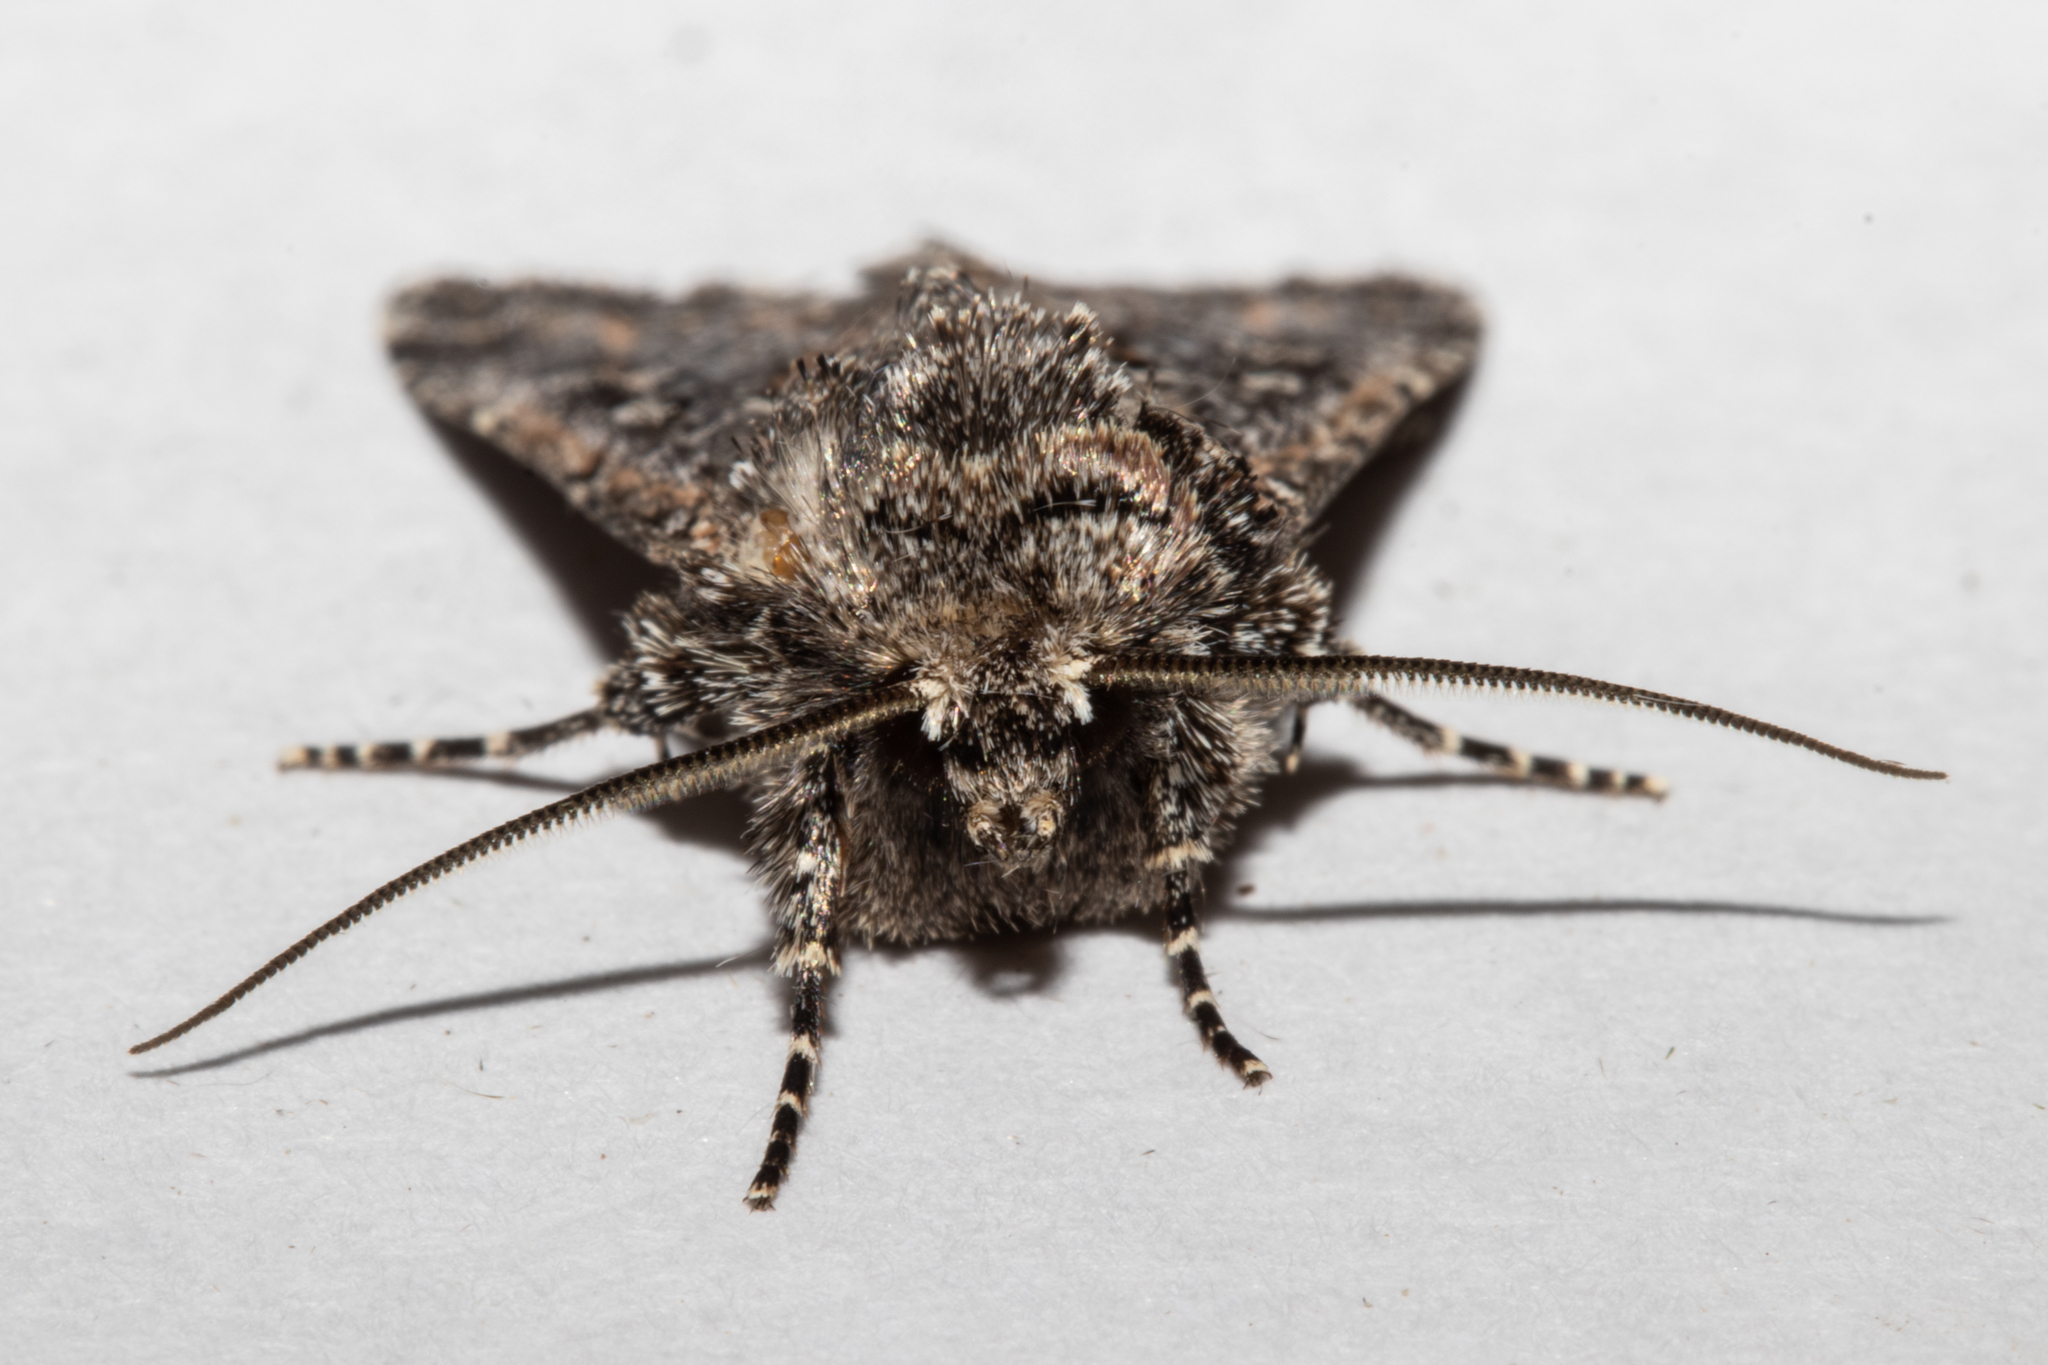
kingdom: Animalia
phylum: Arthropoda
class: Insecta
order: Lepidoptera
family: Noctuidae
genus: Ichneutica
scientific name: Ichneutica lithias
